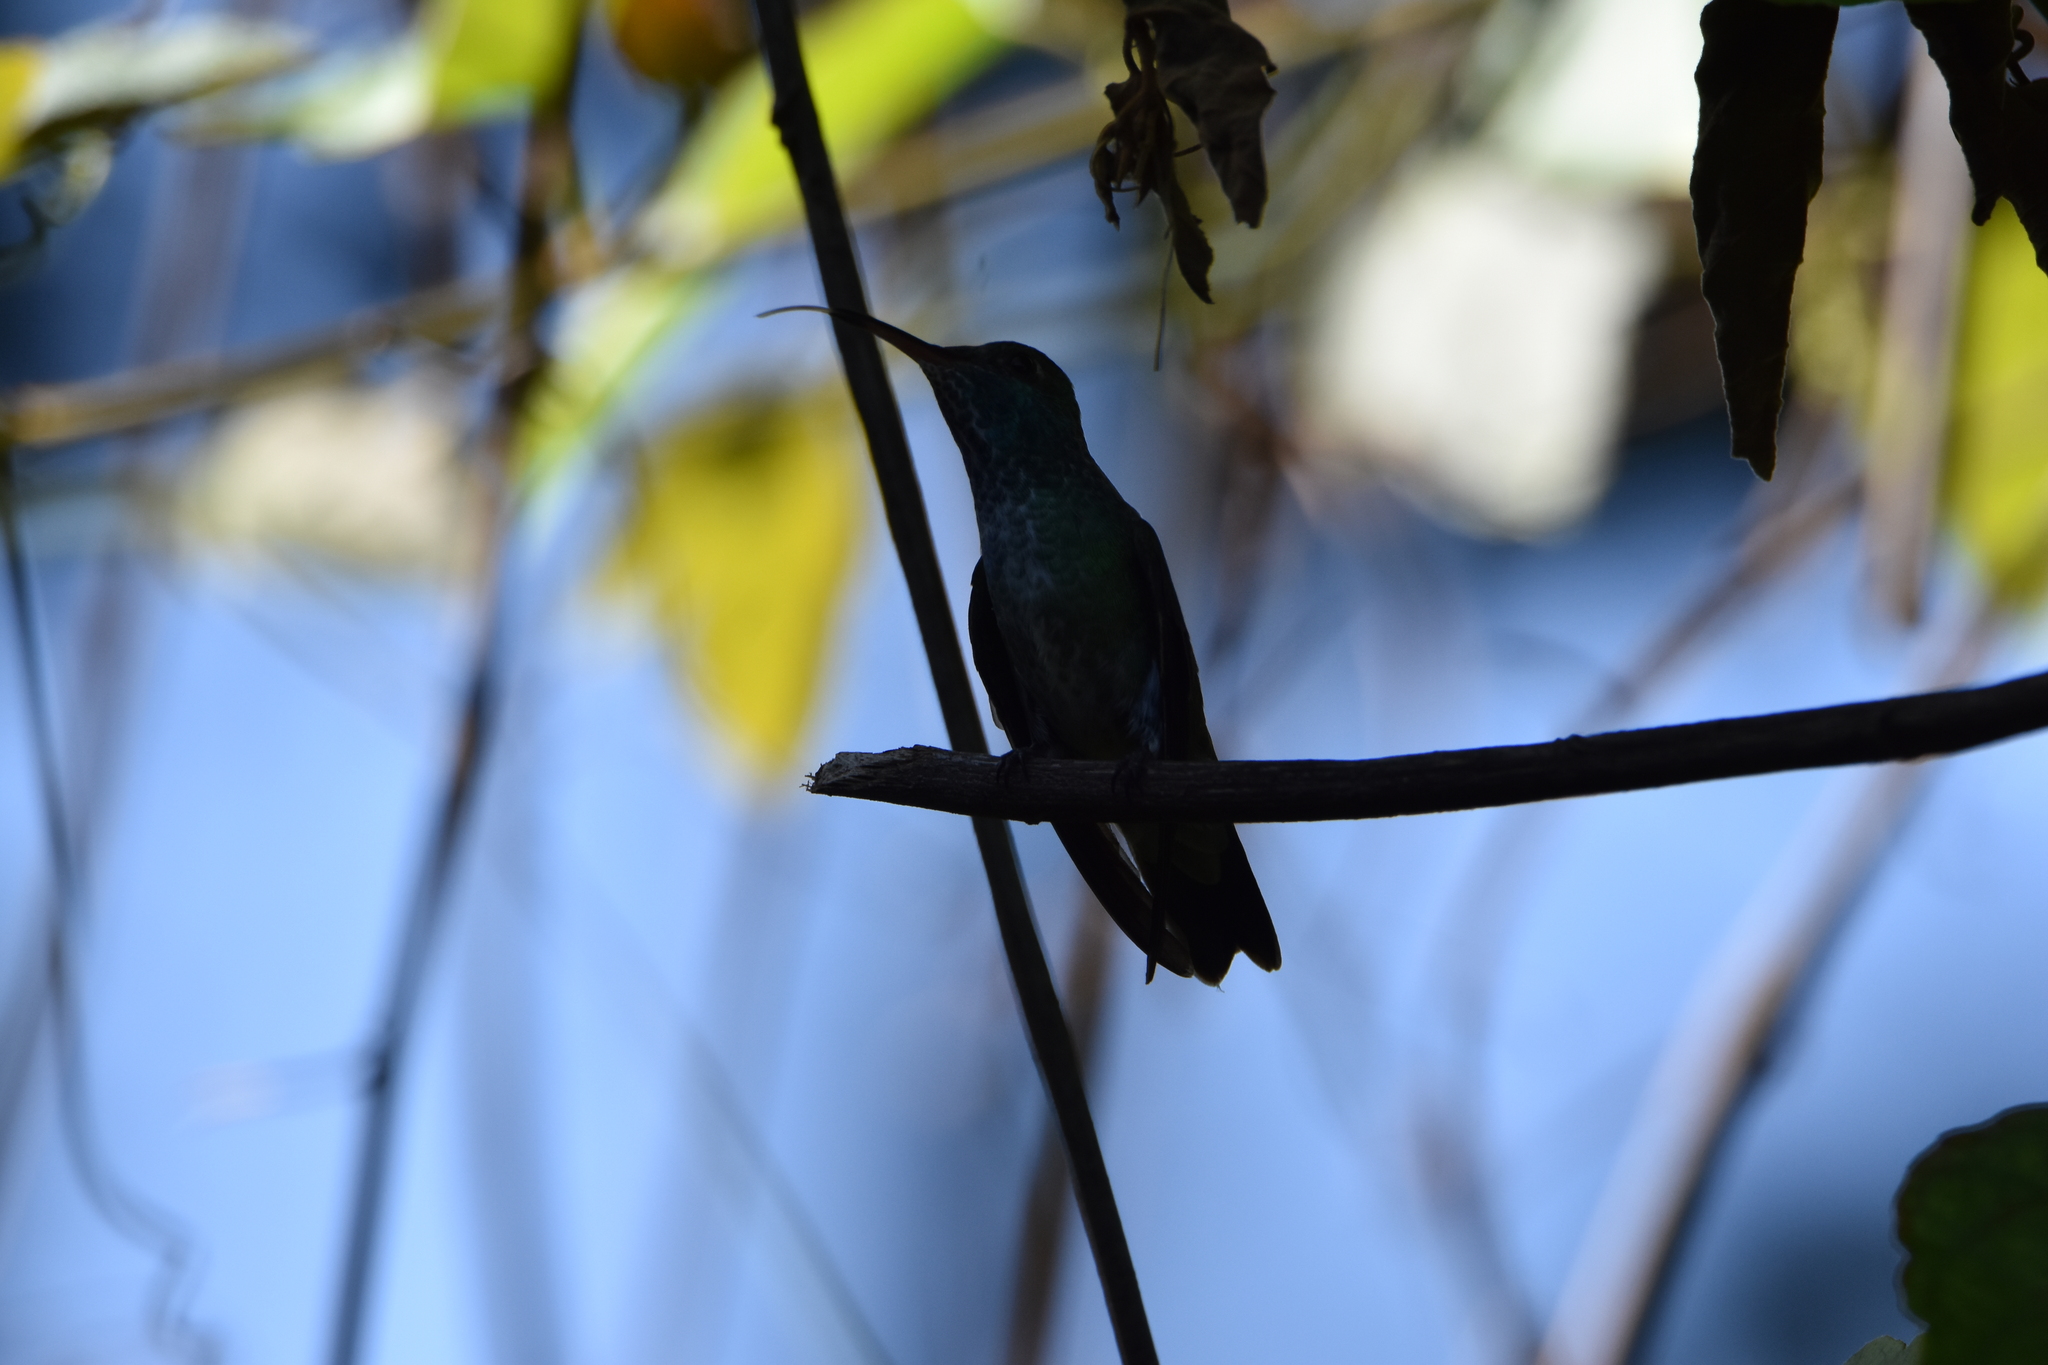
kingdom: Animalia
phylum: Chordata
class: Aves
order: Apodiformes
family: Trochilidae
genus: Chrysuronia
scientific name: Chrysuronia versicolor
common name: Versicolored emerald
